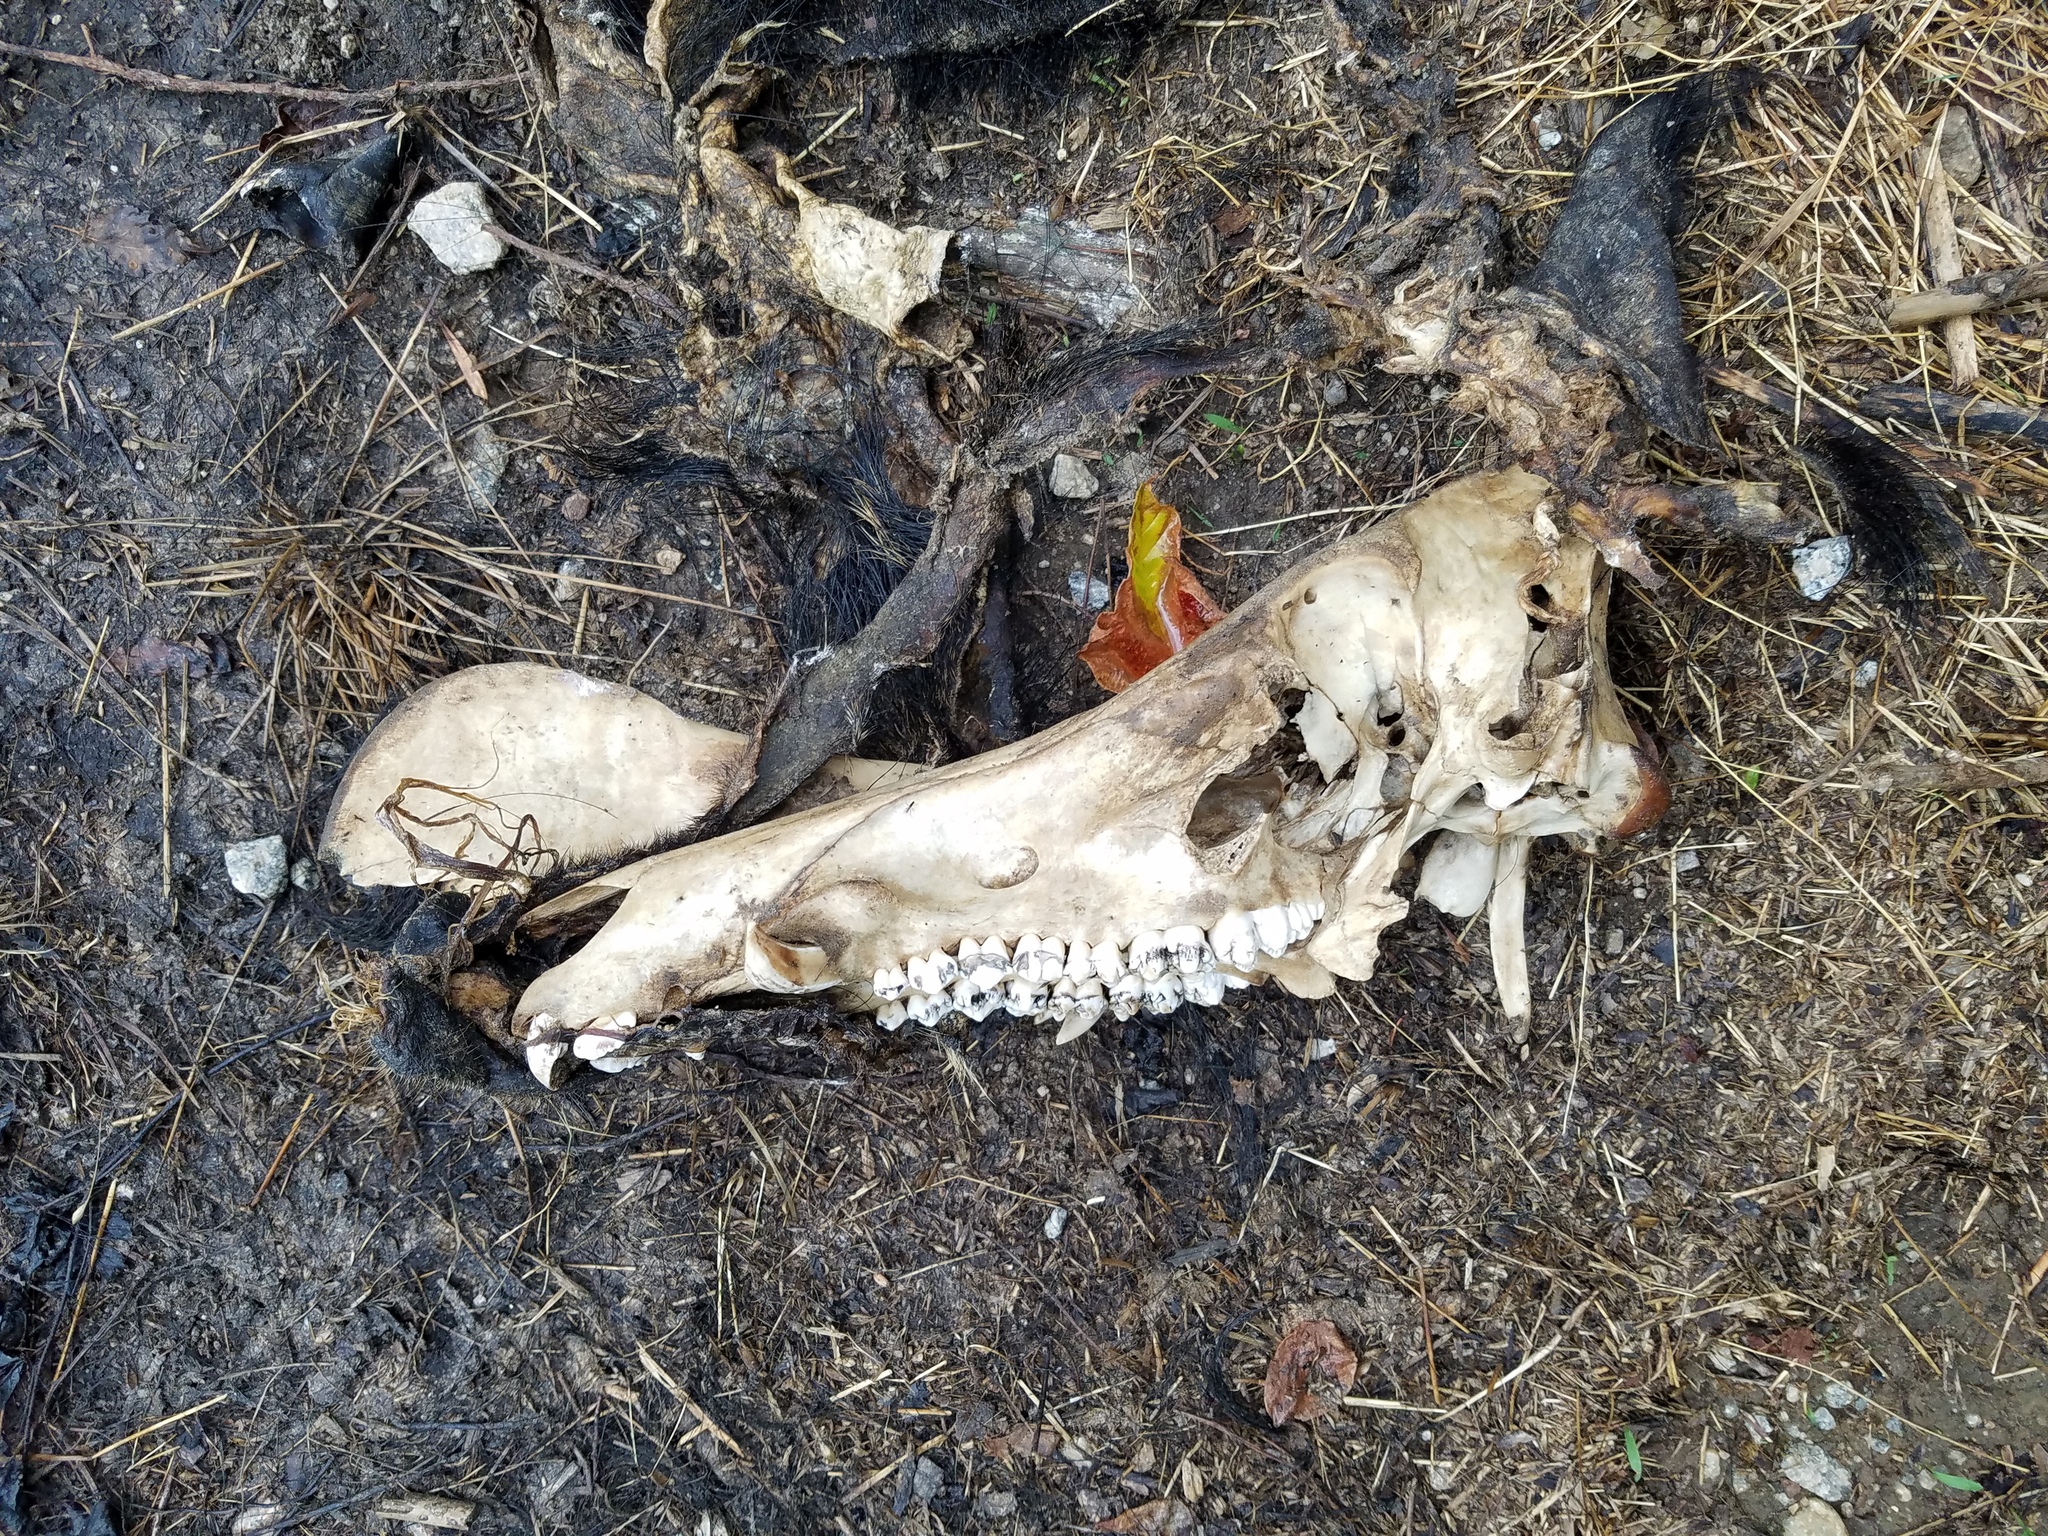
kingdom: Animalia
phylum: Chordata
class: Mammalia
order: Artiodactyla
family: Suidae
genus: Sus
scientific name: Sus scrofa
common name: Wild boar
